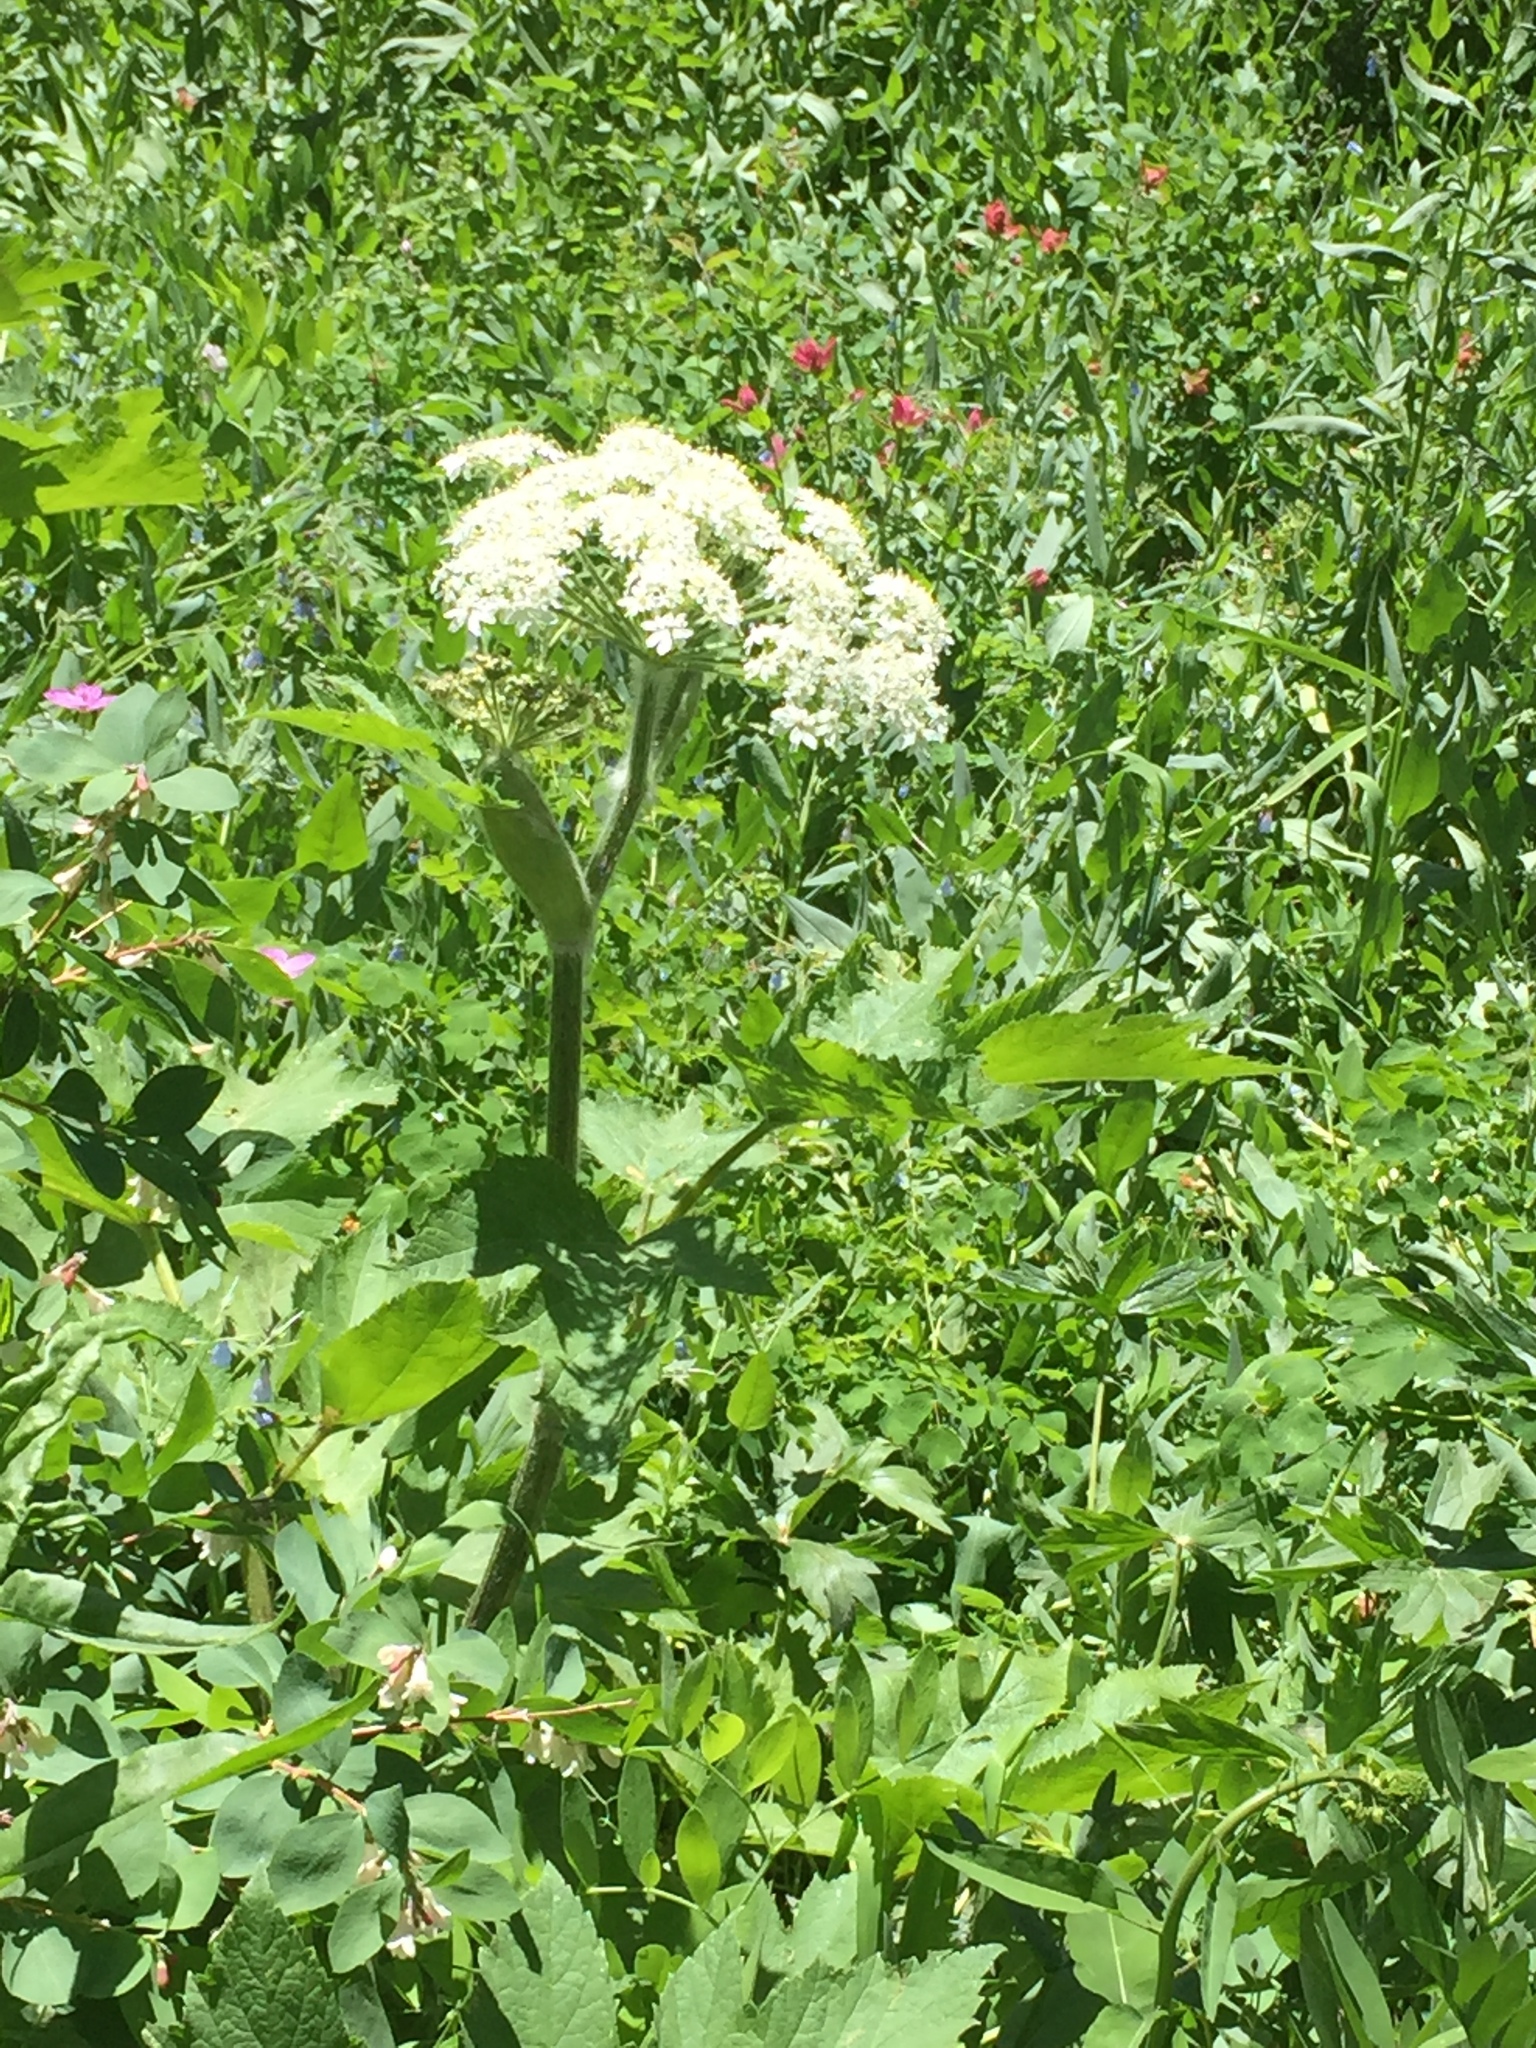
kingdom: Plantae
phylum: Tracheophyta
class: Magnoliopsida
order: Apiales
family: Apiaceae
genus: Heracleum
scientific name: Heracleum maximum
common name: American cow parsnip
